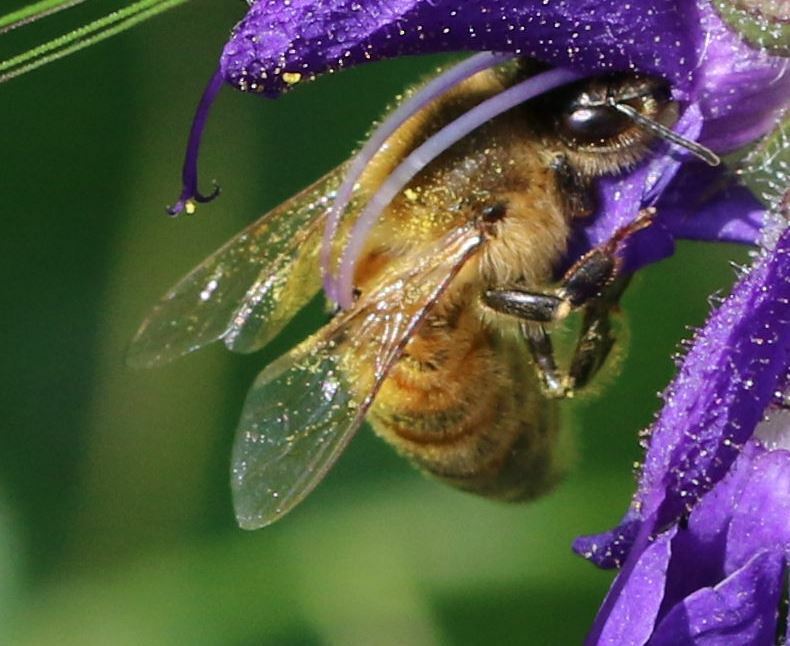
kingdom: Animalia
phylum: Arthropoda
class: Insecta
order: Hymenoptera
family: Apidae
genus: Apis
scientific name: Apis mellifera
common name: Honey bee
